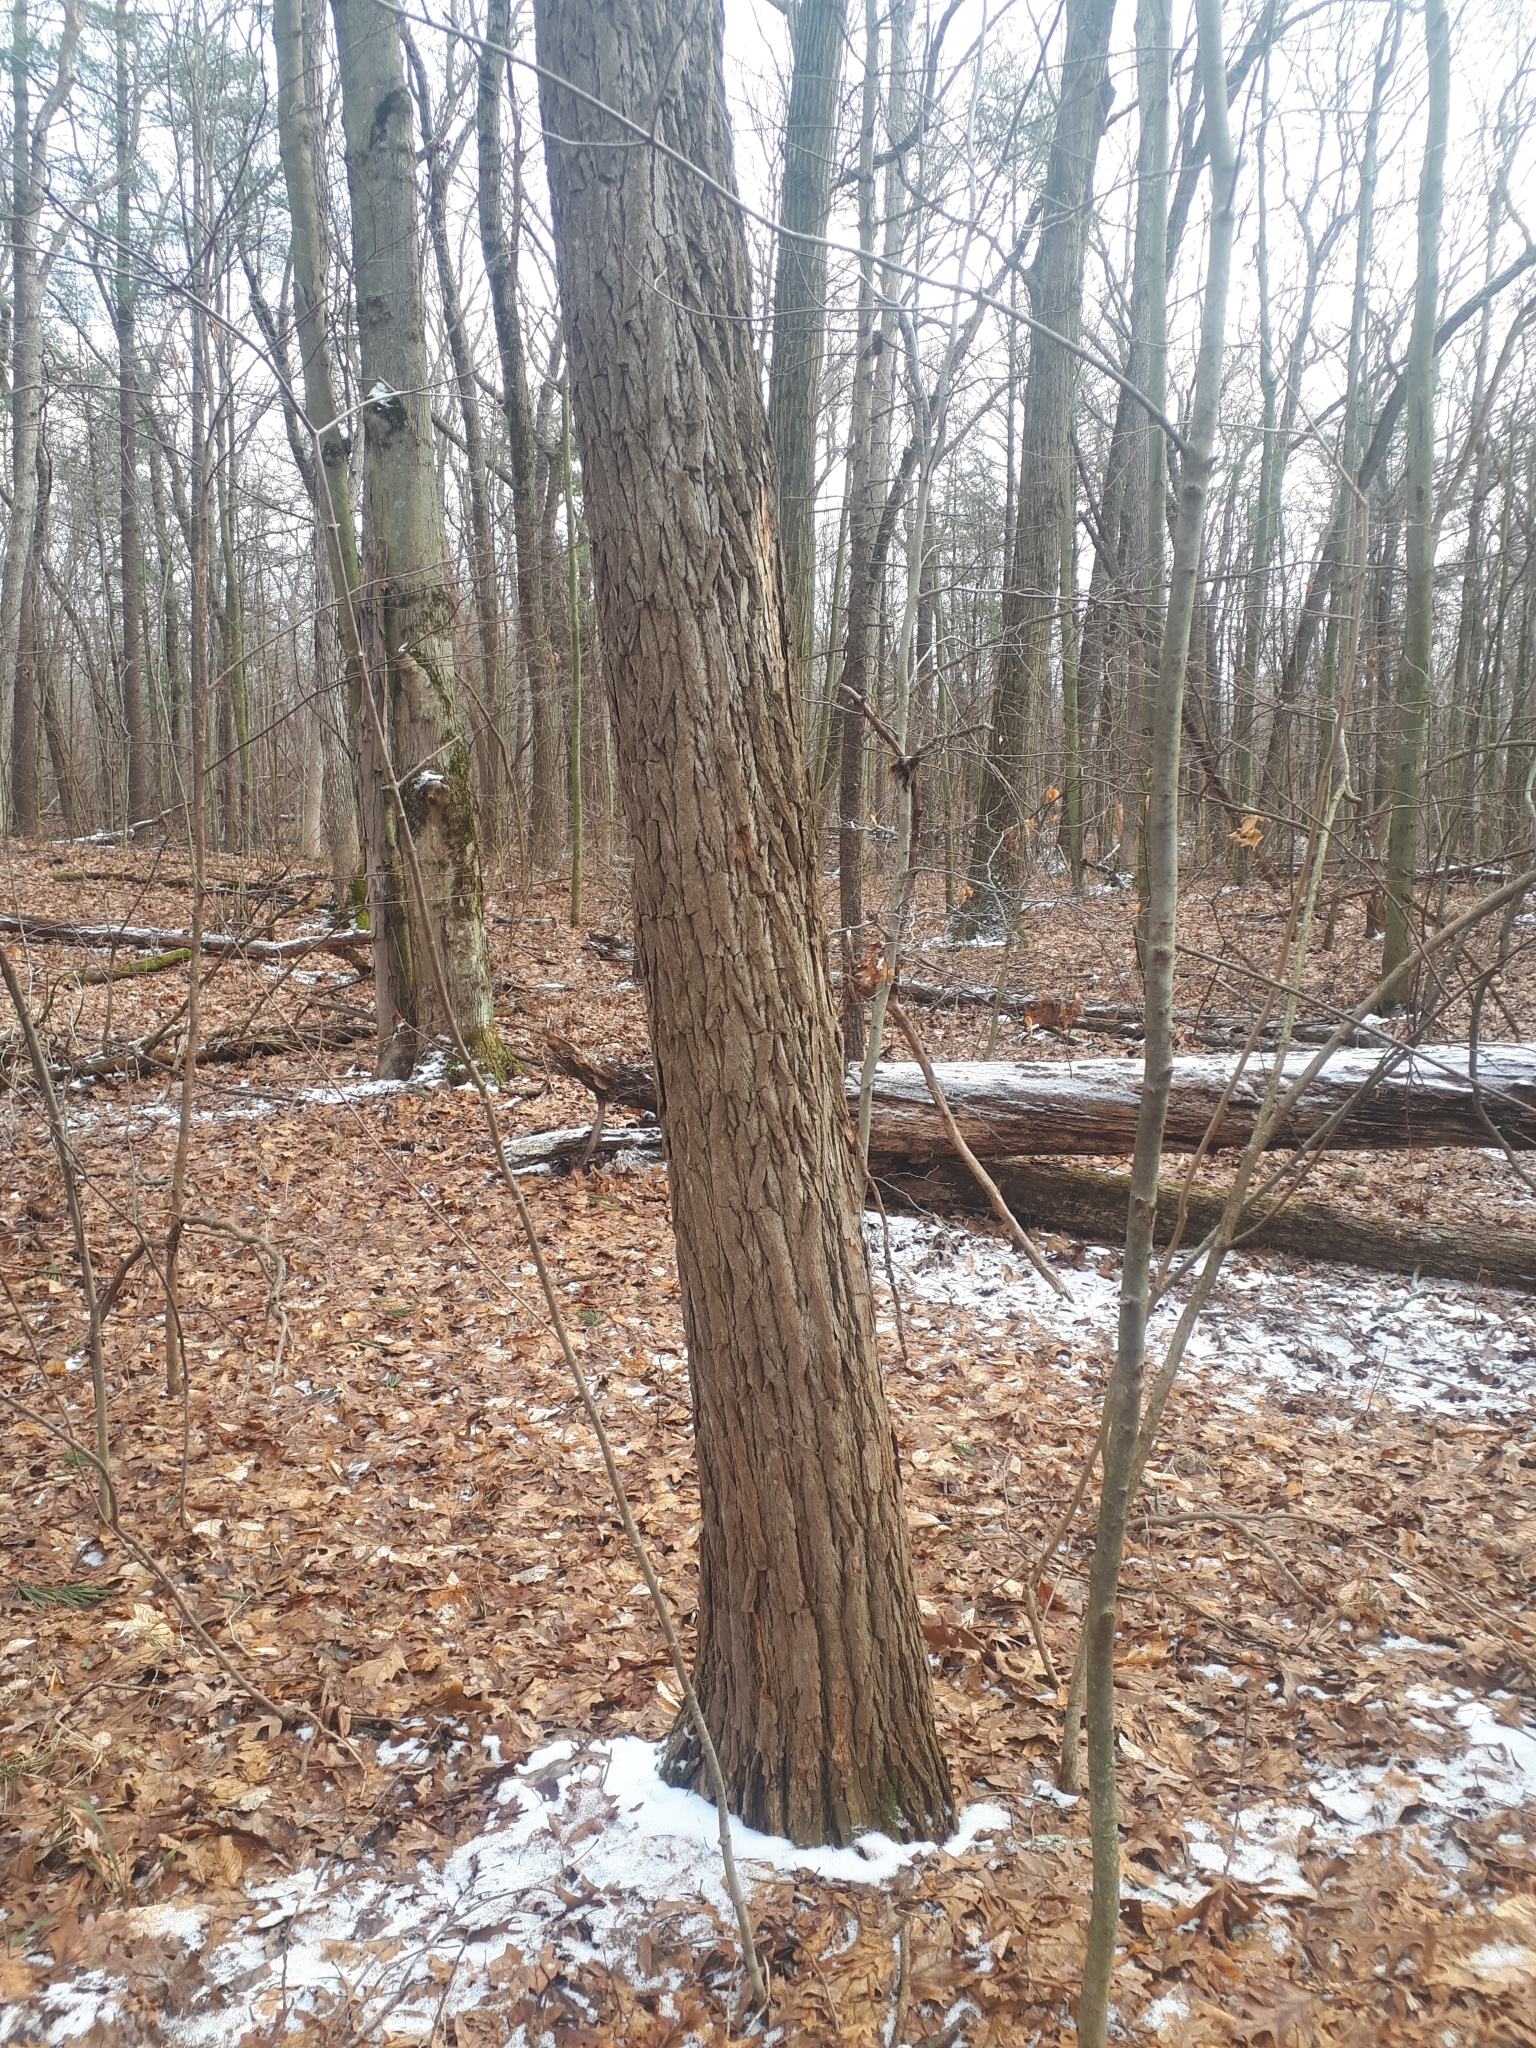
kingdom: Plantae
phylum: Tracheophyta
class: Magnoliopsida
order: Laurales
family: Lauraceae
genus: Sassafras
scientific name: Sassafras albidum
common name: Sassafras
